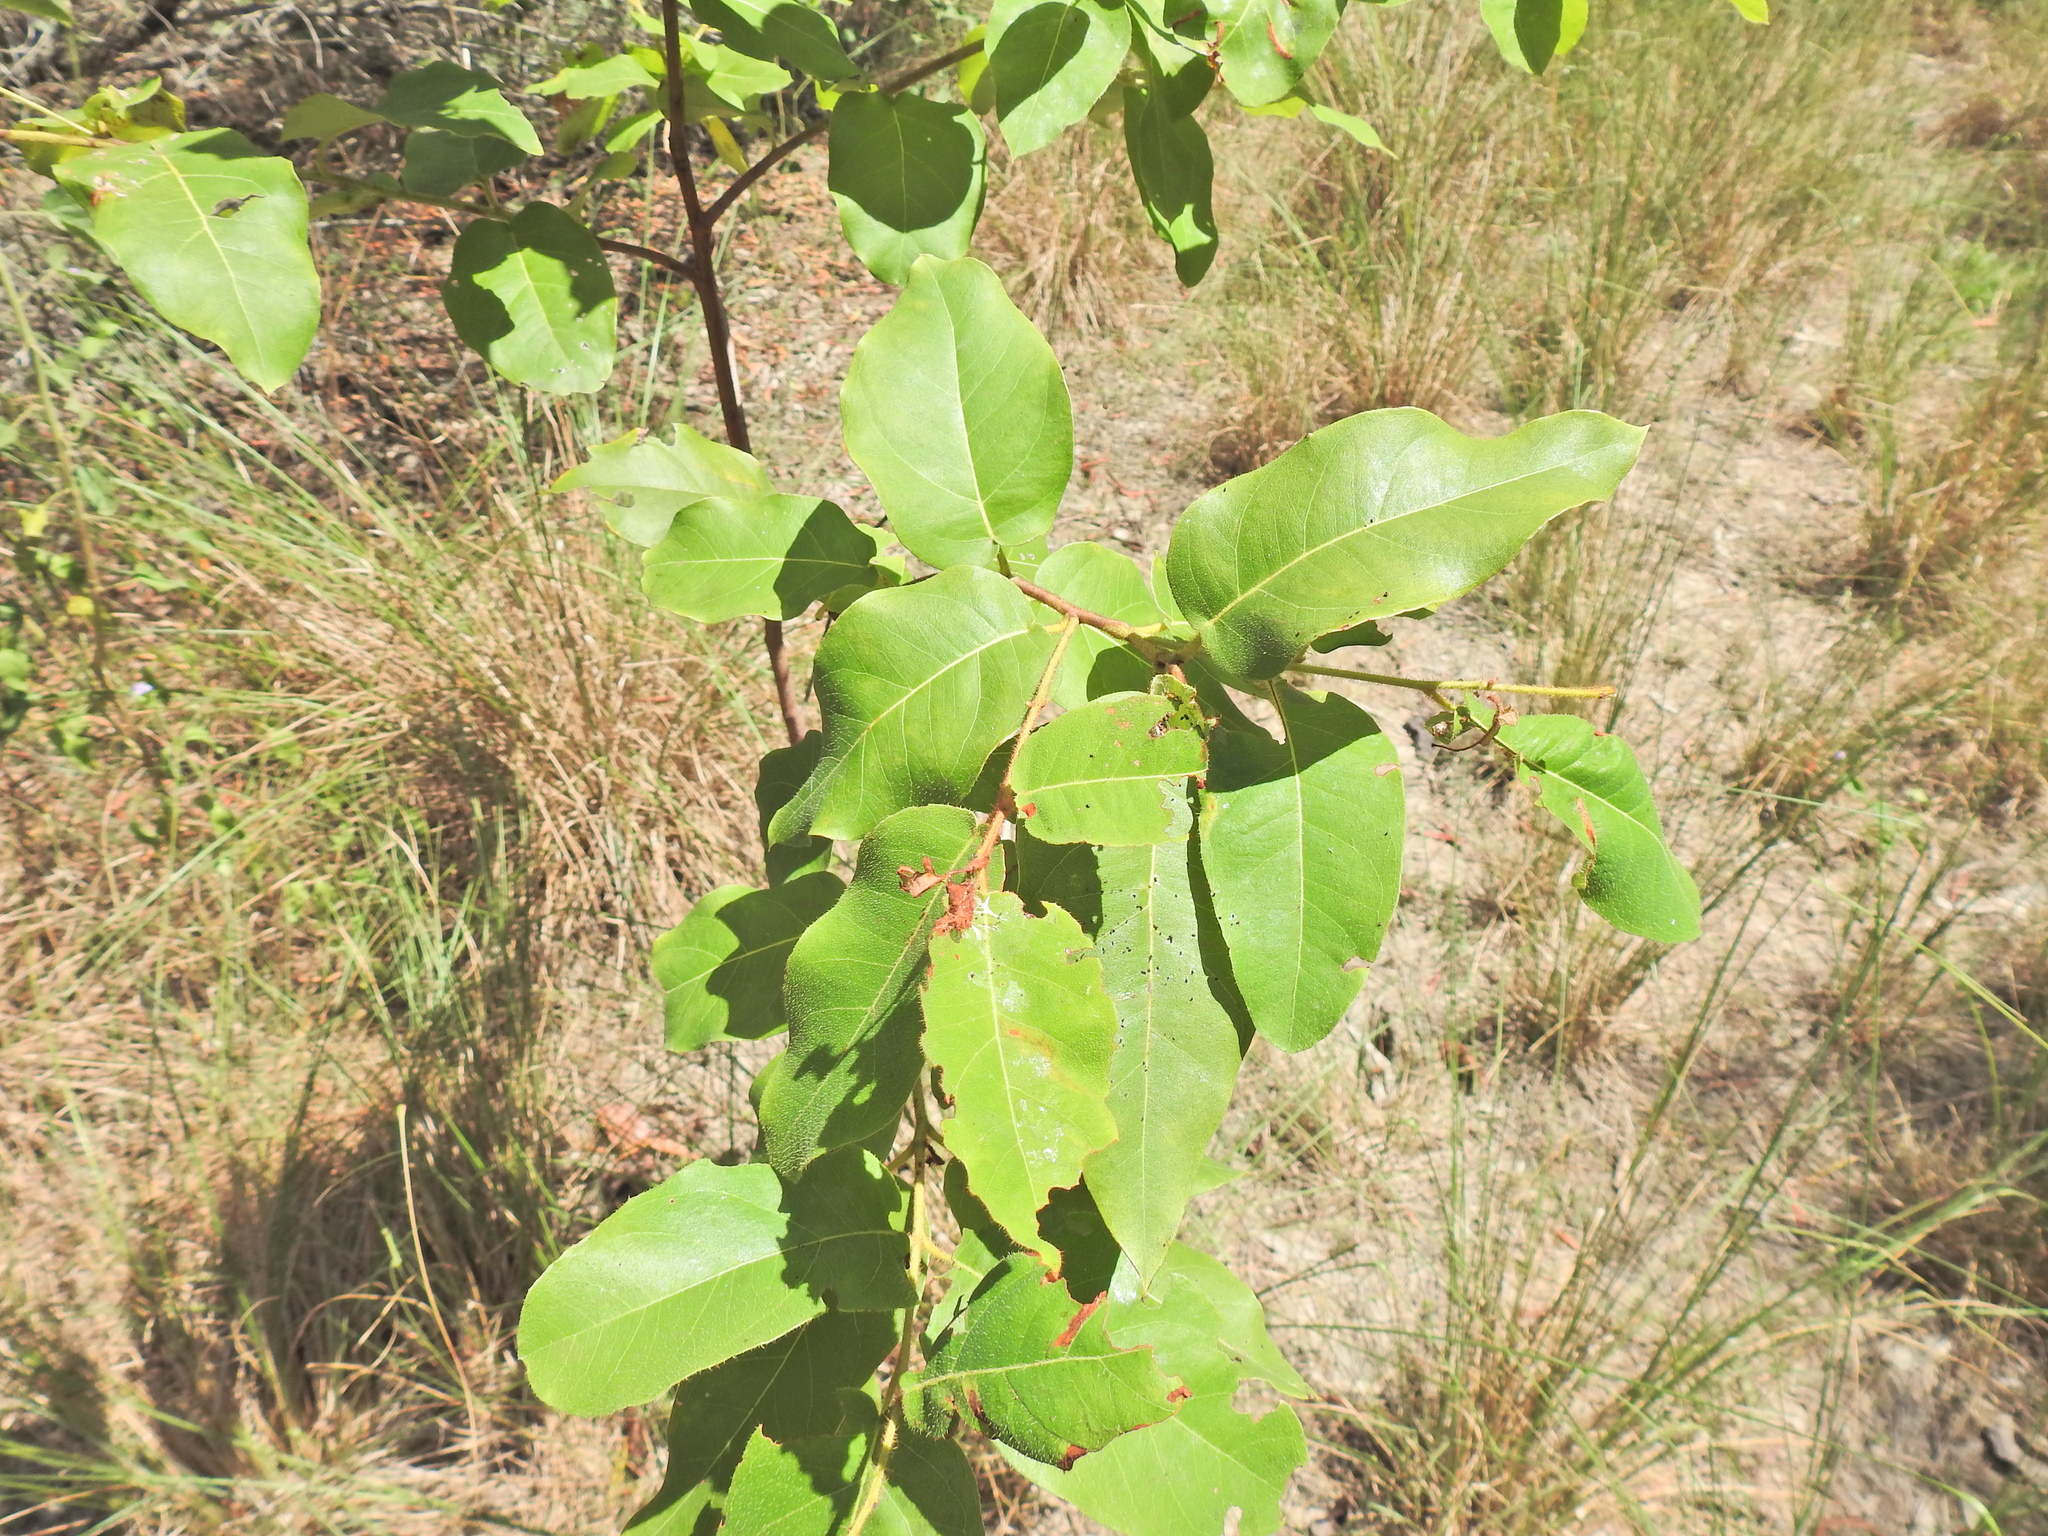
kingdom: Plantae
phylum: Tracheophyta
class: Magnoliopsida
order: Myrtales
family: Myrtaceae
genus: Corymbia
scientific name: Corymbia torelliana
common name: Cadaghi
